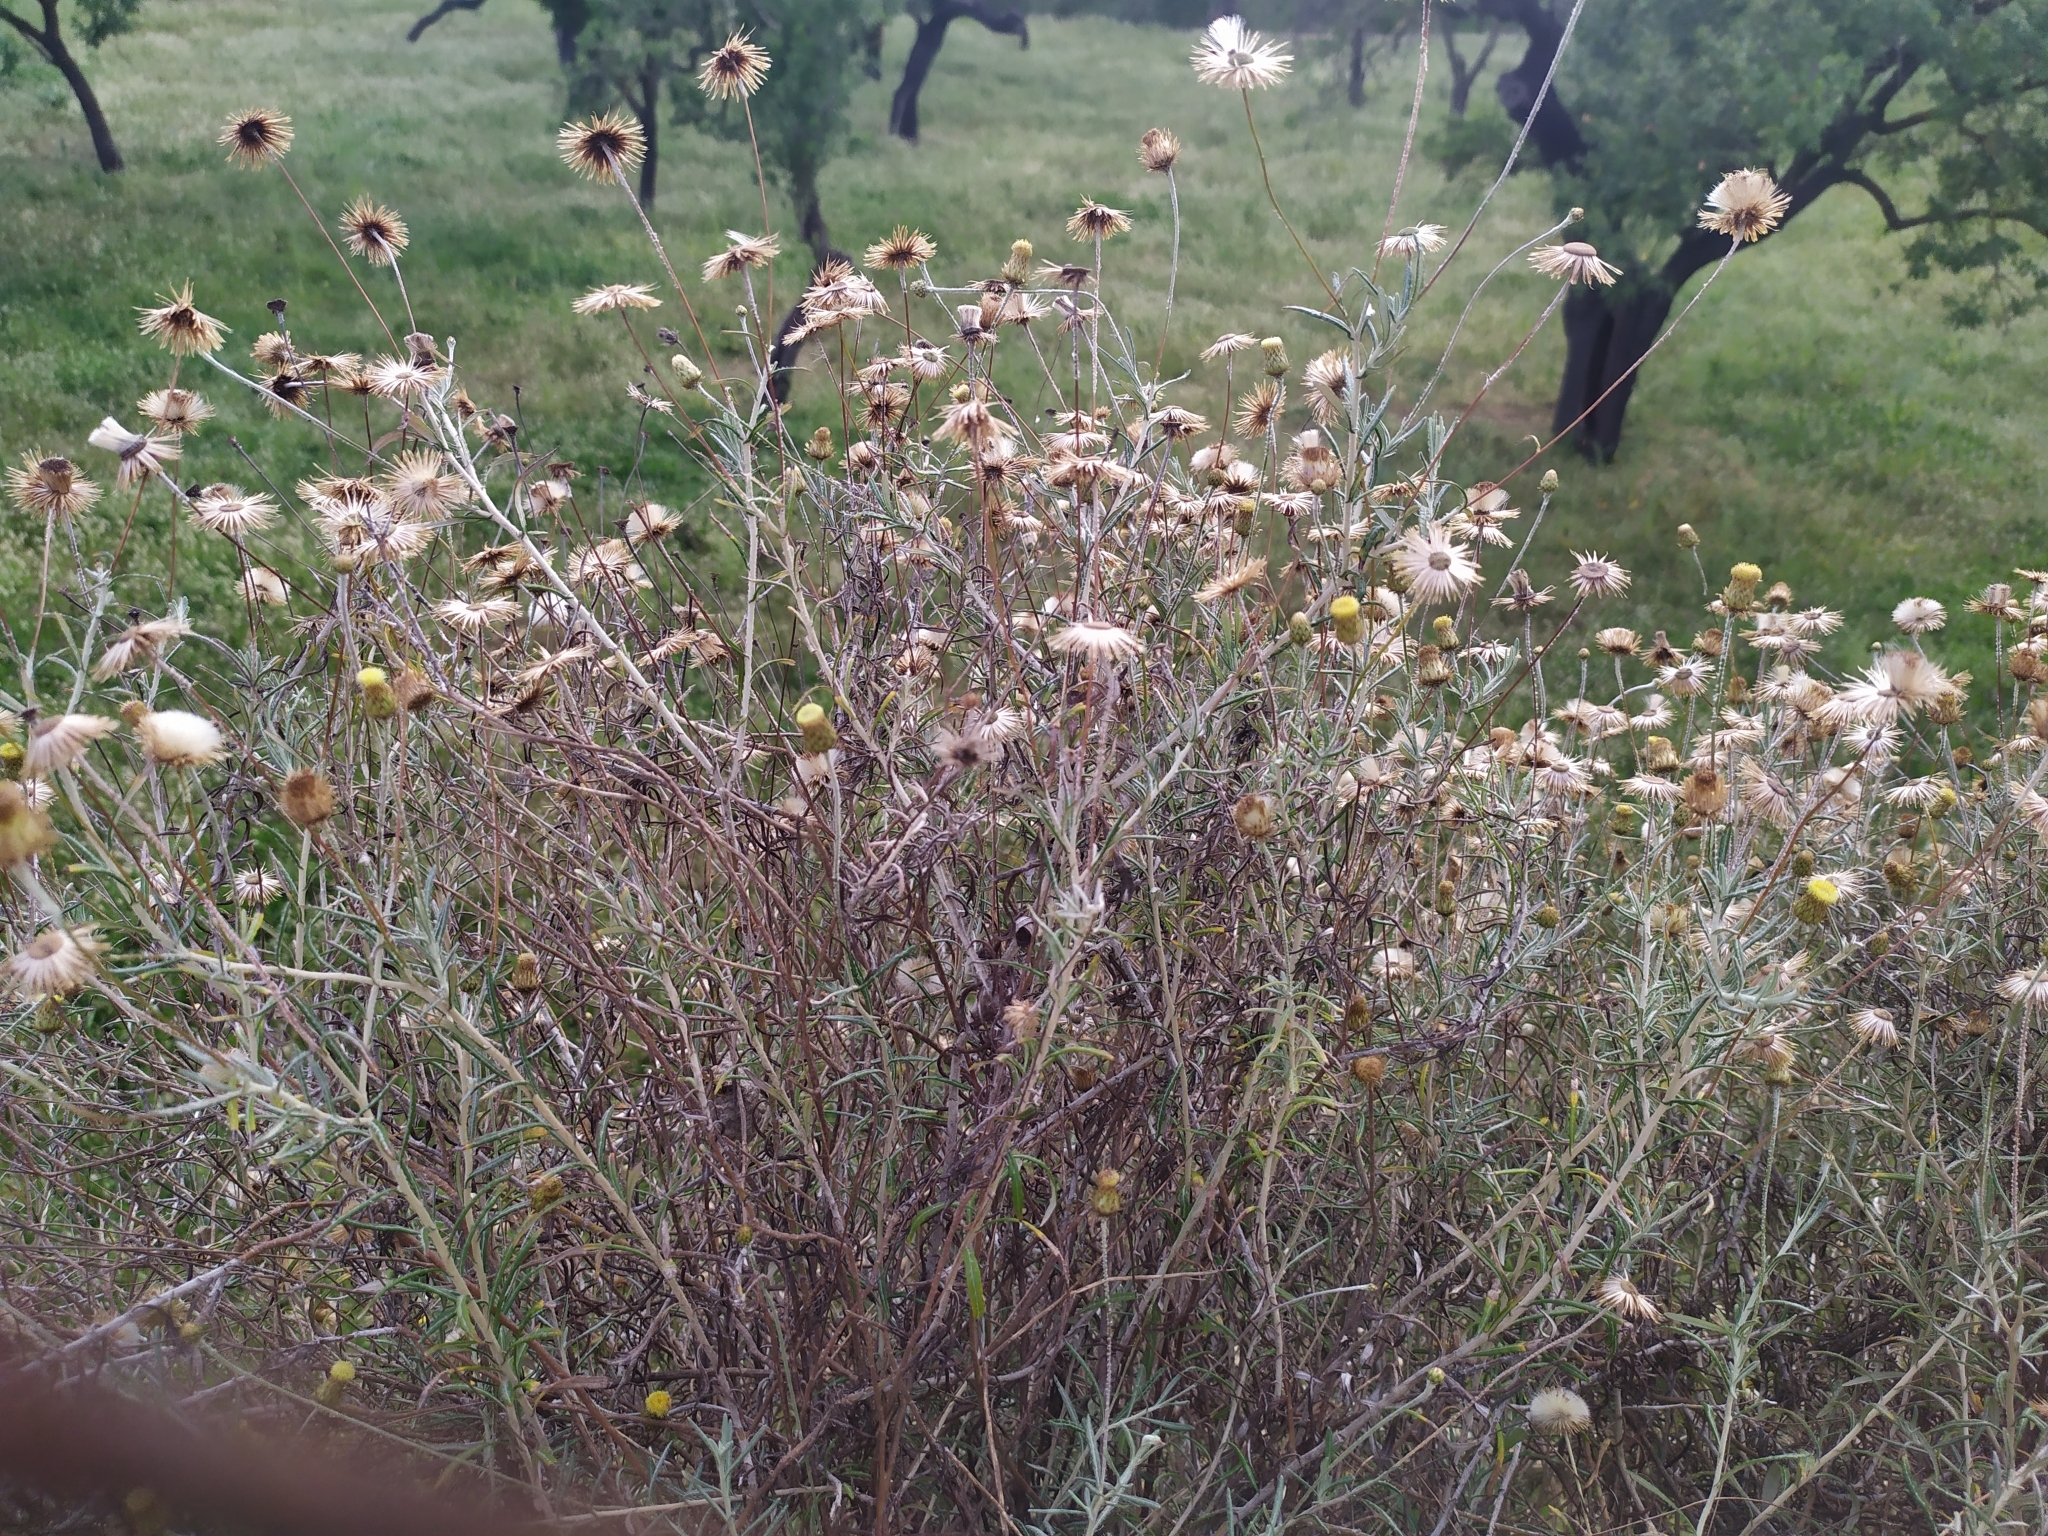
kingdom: Plantae
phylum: Tracheophyta
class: Magnoliopsida
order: Asterales
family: Asteraceae
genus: Phagnalon
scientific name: Phagnalon saxatile
